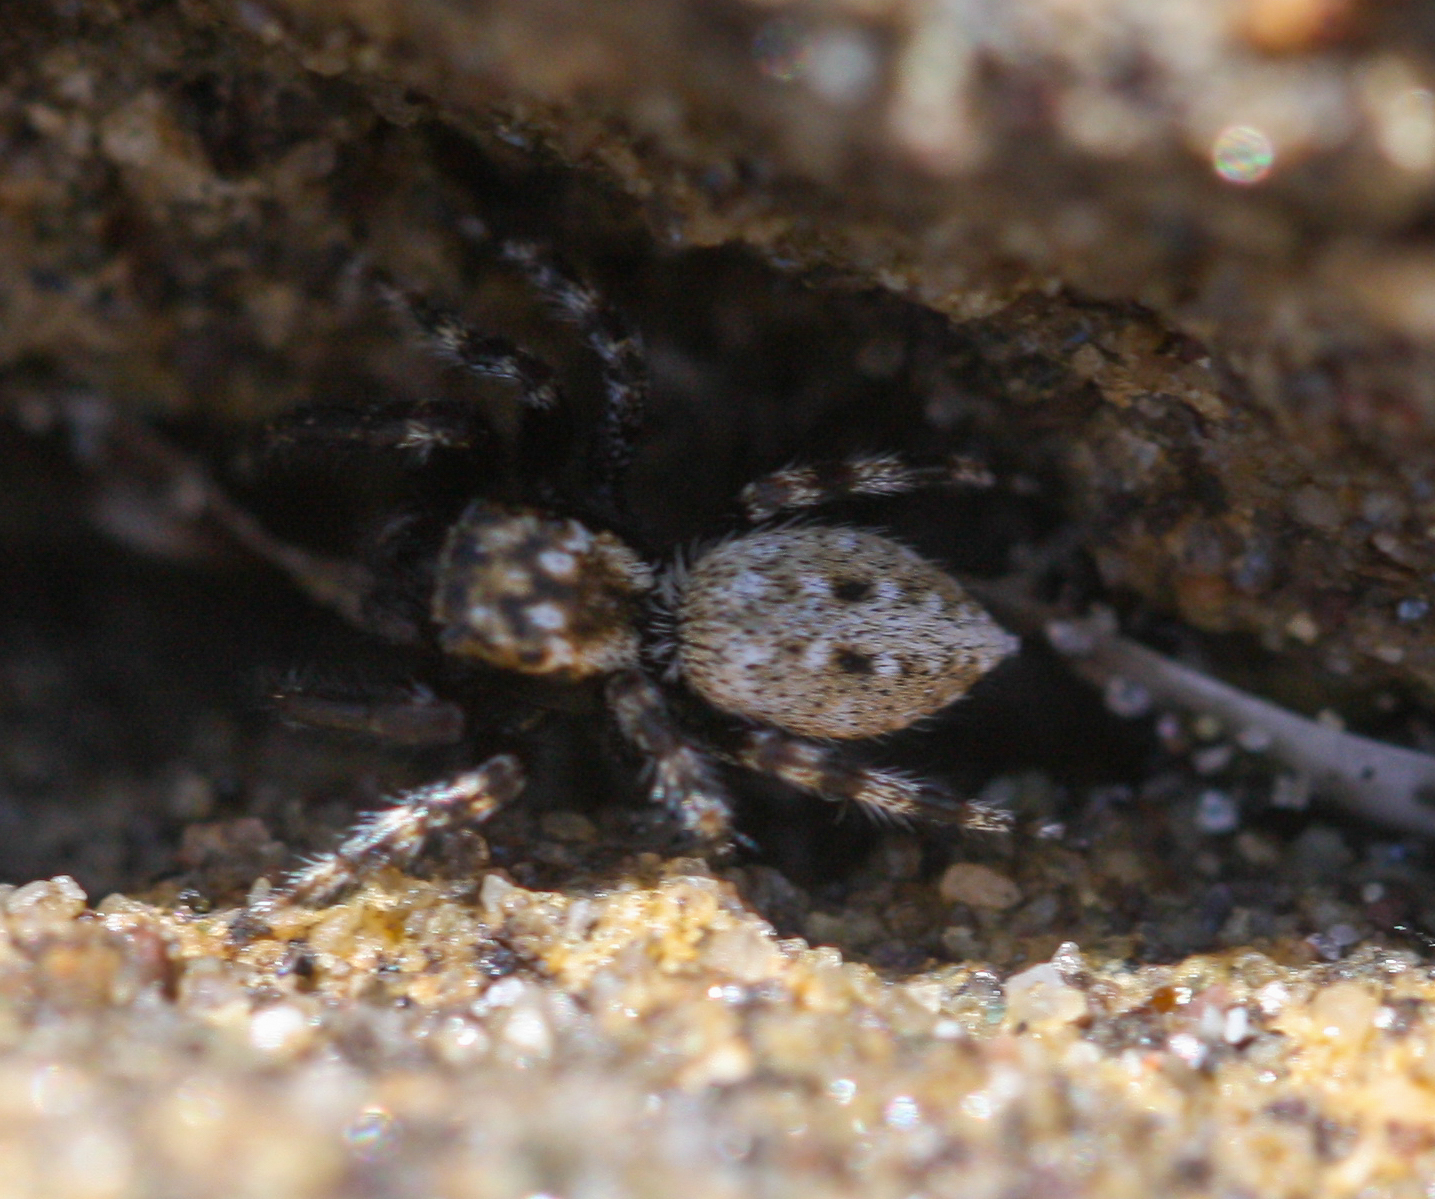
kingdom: Animalia
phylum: Arthropoda
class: Arachnida
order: Araneae
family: Salticidae
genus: Terralonus
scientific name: Terralonus californicus
